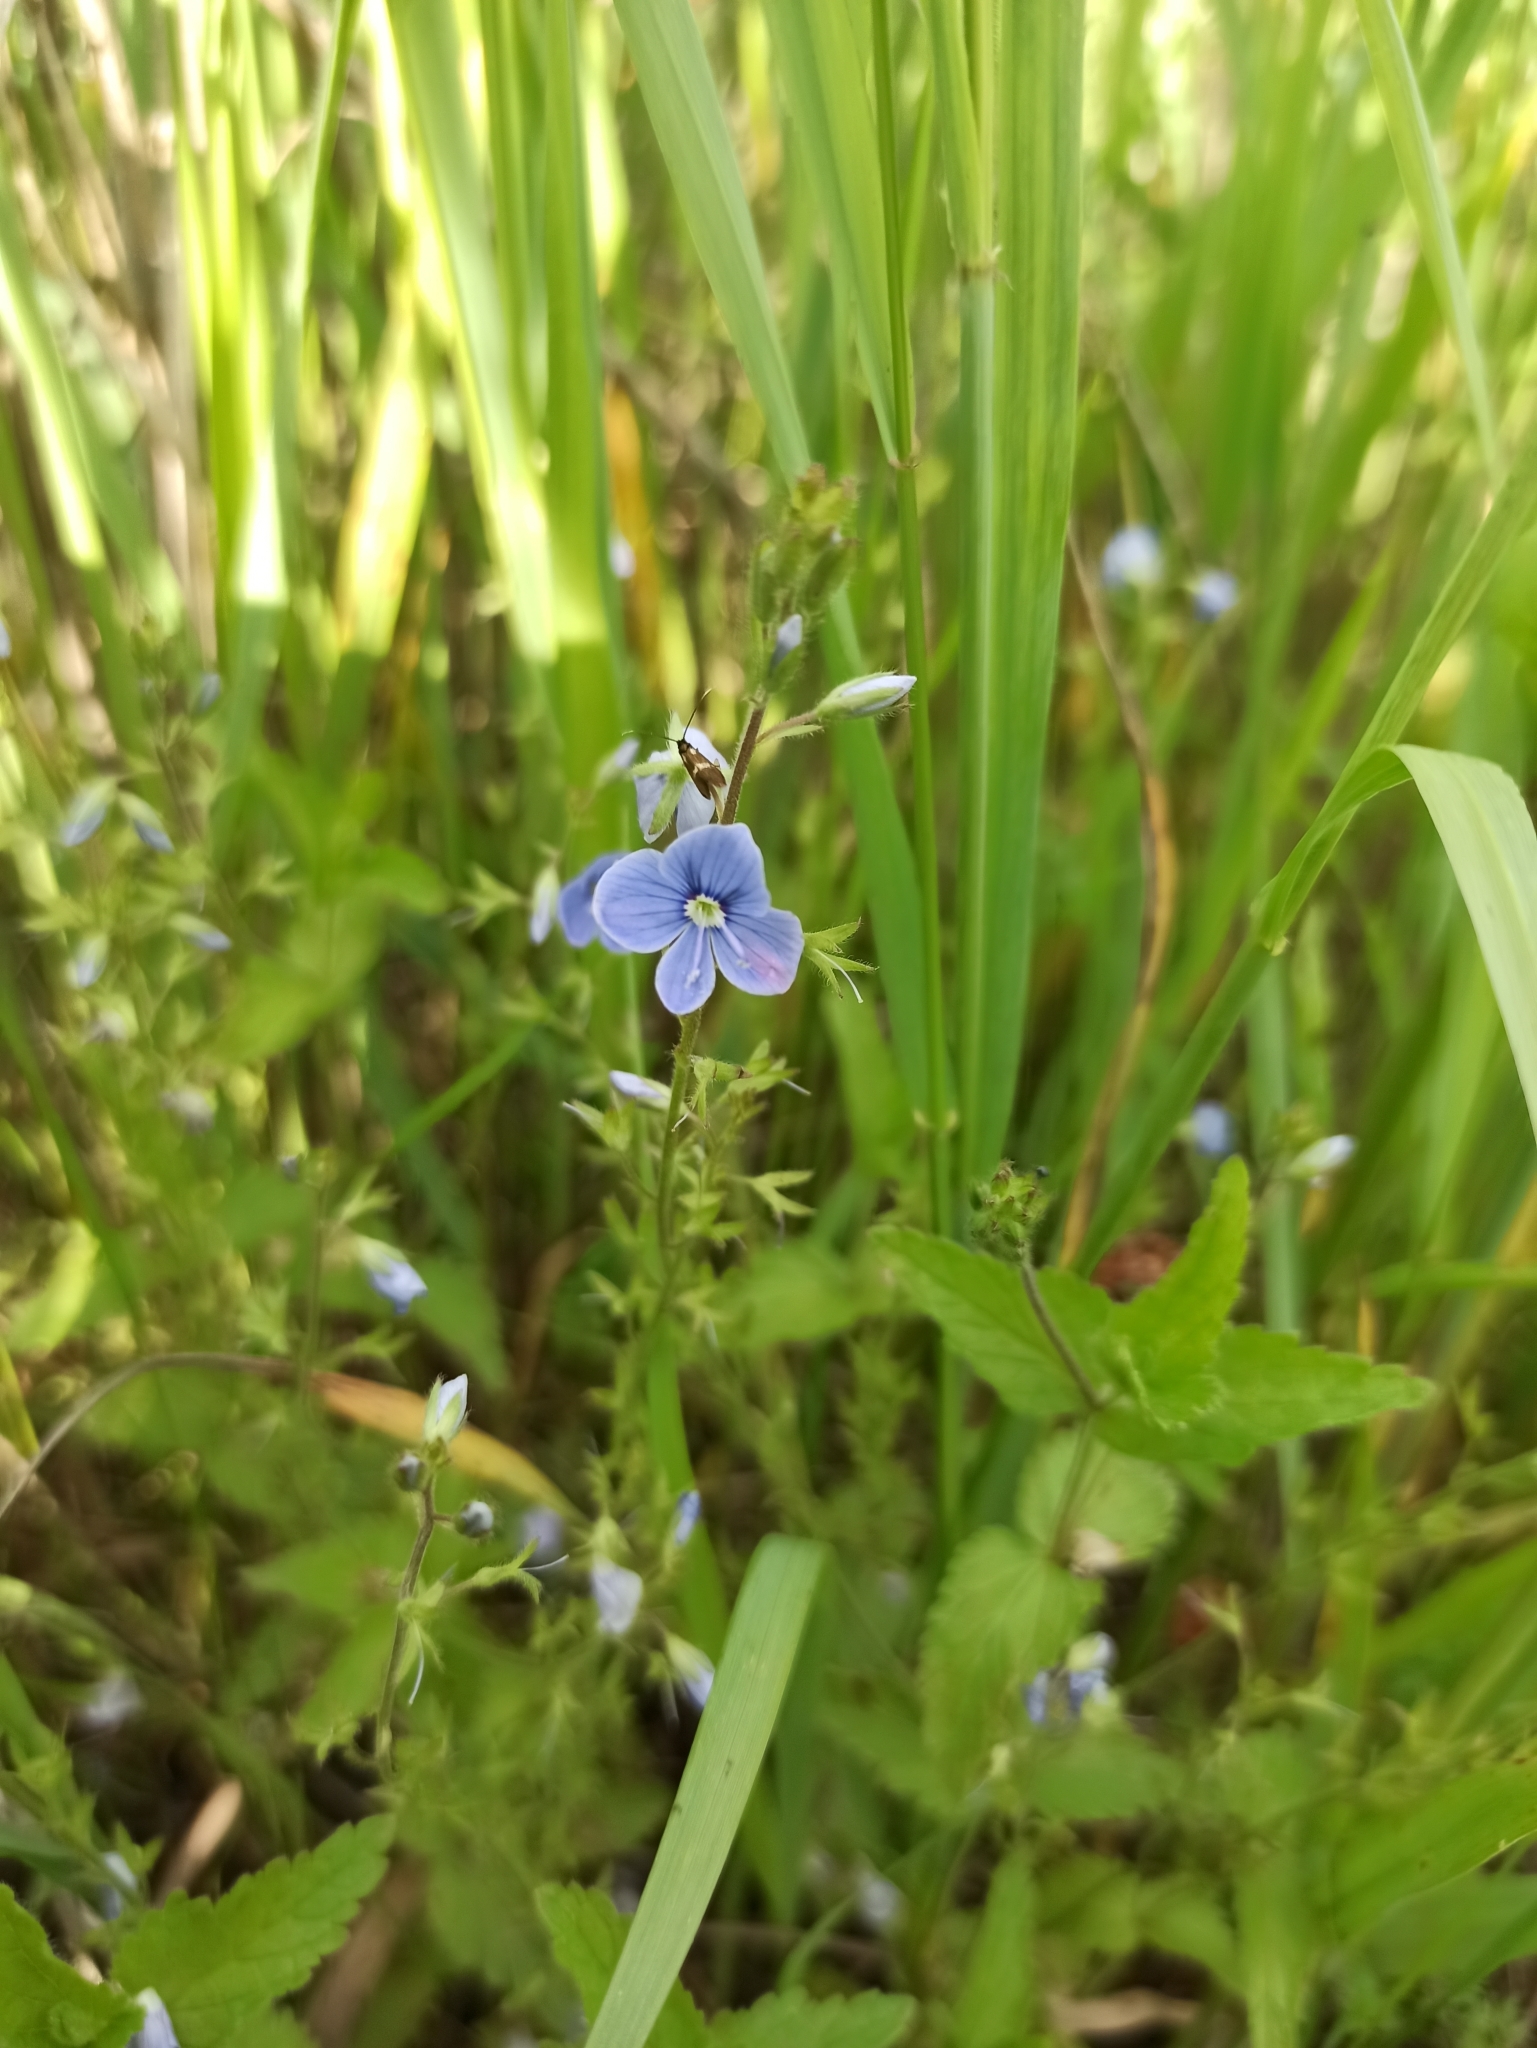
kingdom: Plantae
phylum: Tracheophyta
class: Magnoliopsida
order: Lamiales
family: Plantaginaceae
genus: Veronica
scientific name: Veronica chamaedrys
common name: Germander speedwell
